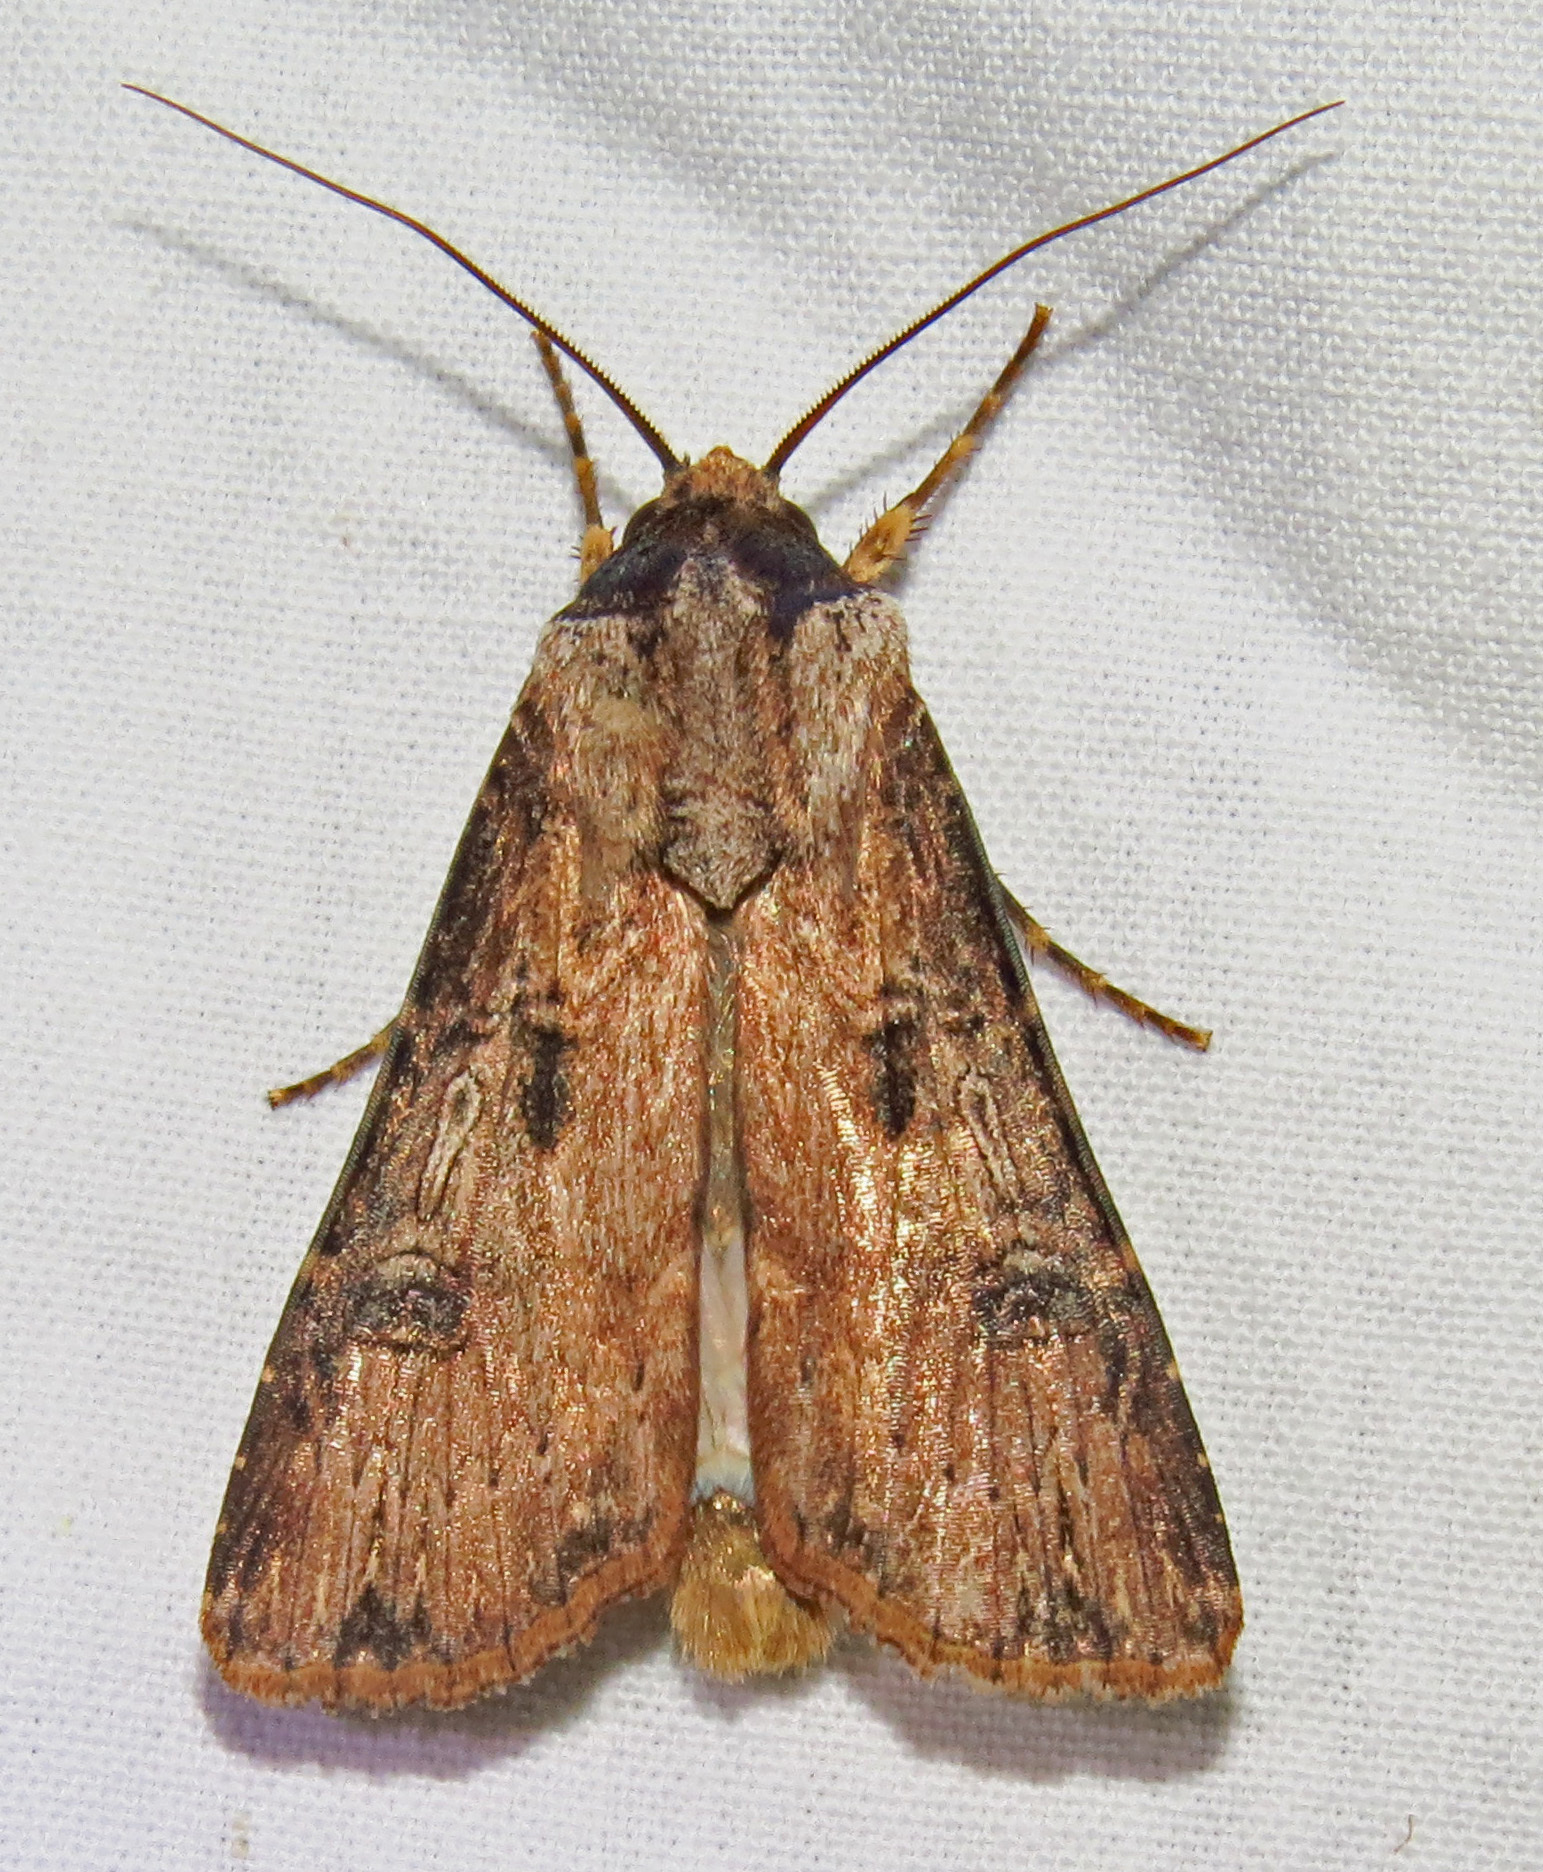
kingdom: Animalia
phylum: Arthropoda
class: Insecta
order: Lepidoptera
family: Noctuidae
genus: Agrotis
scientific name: Agrotis malefida
